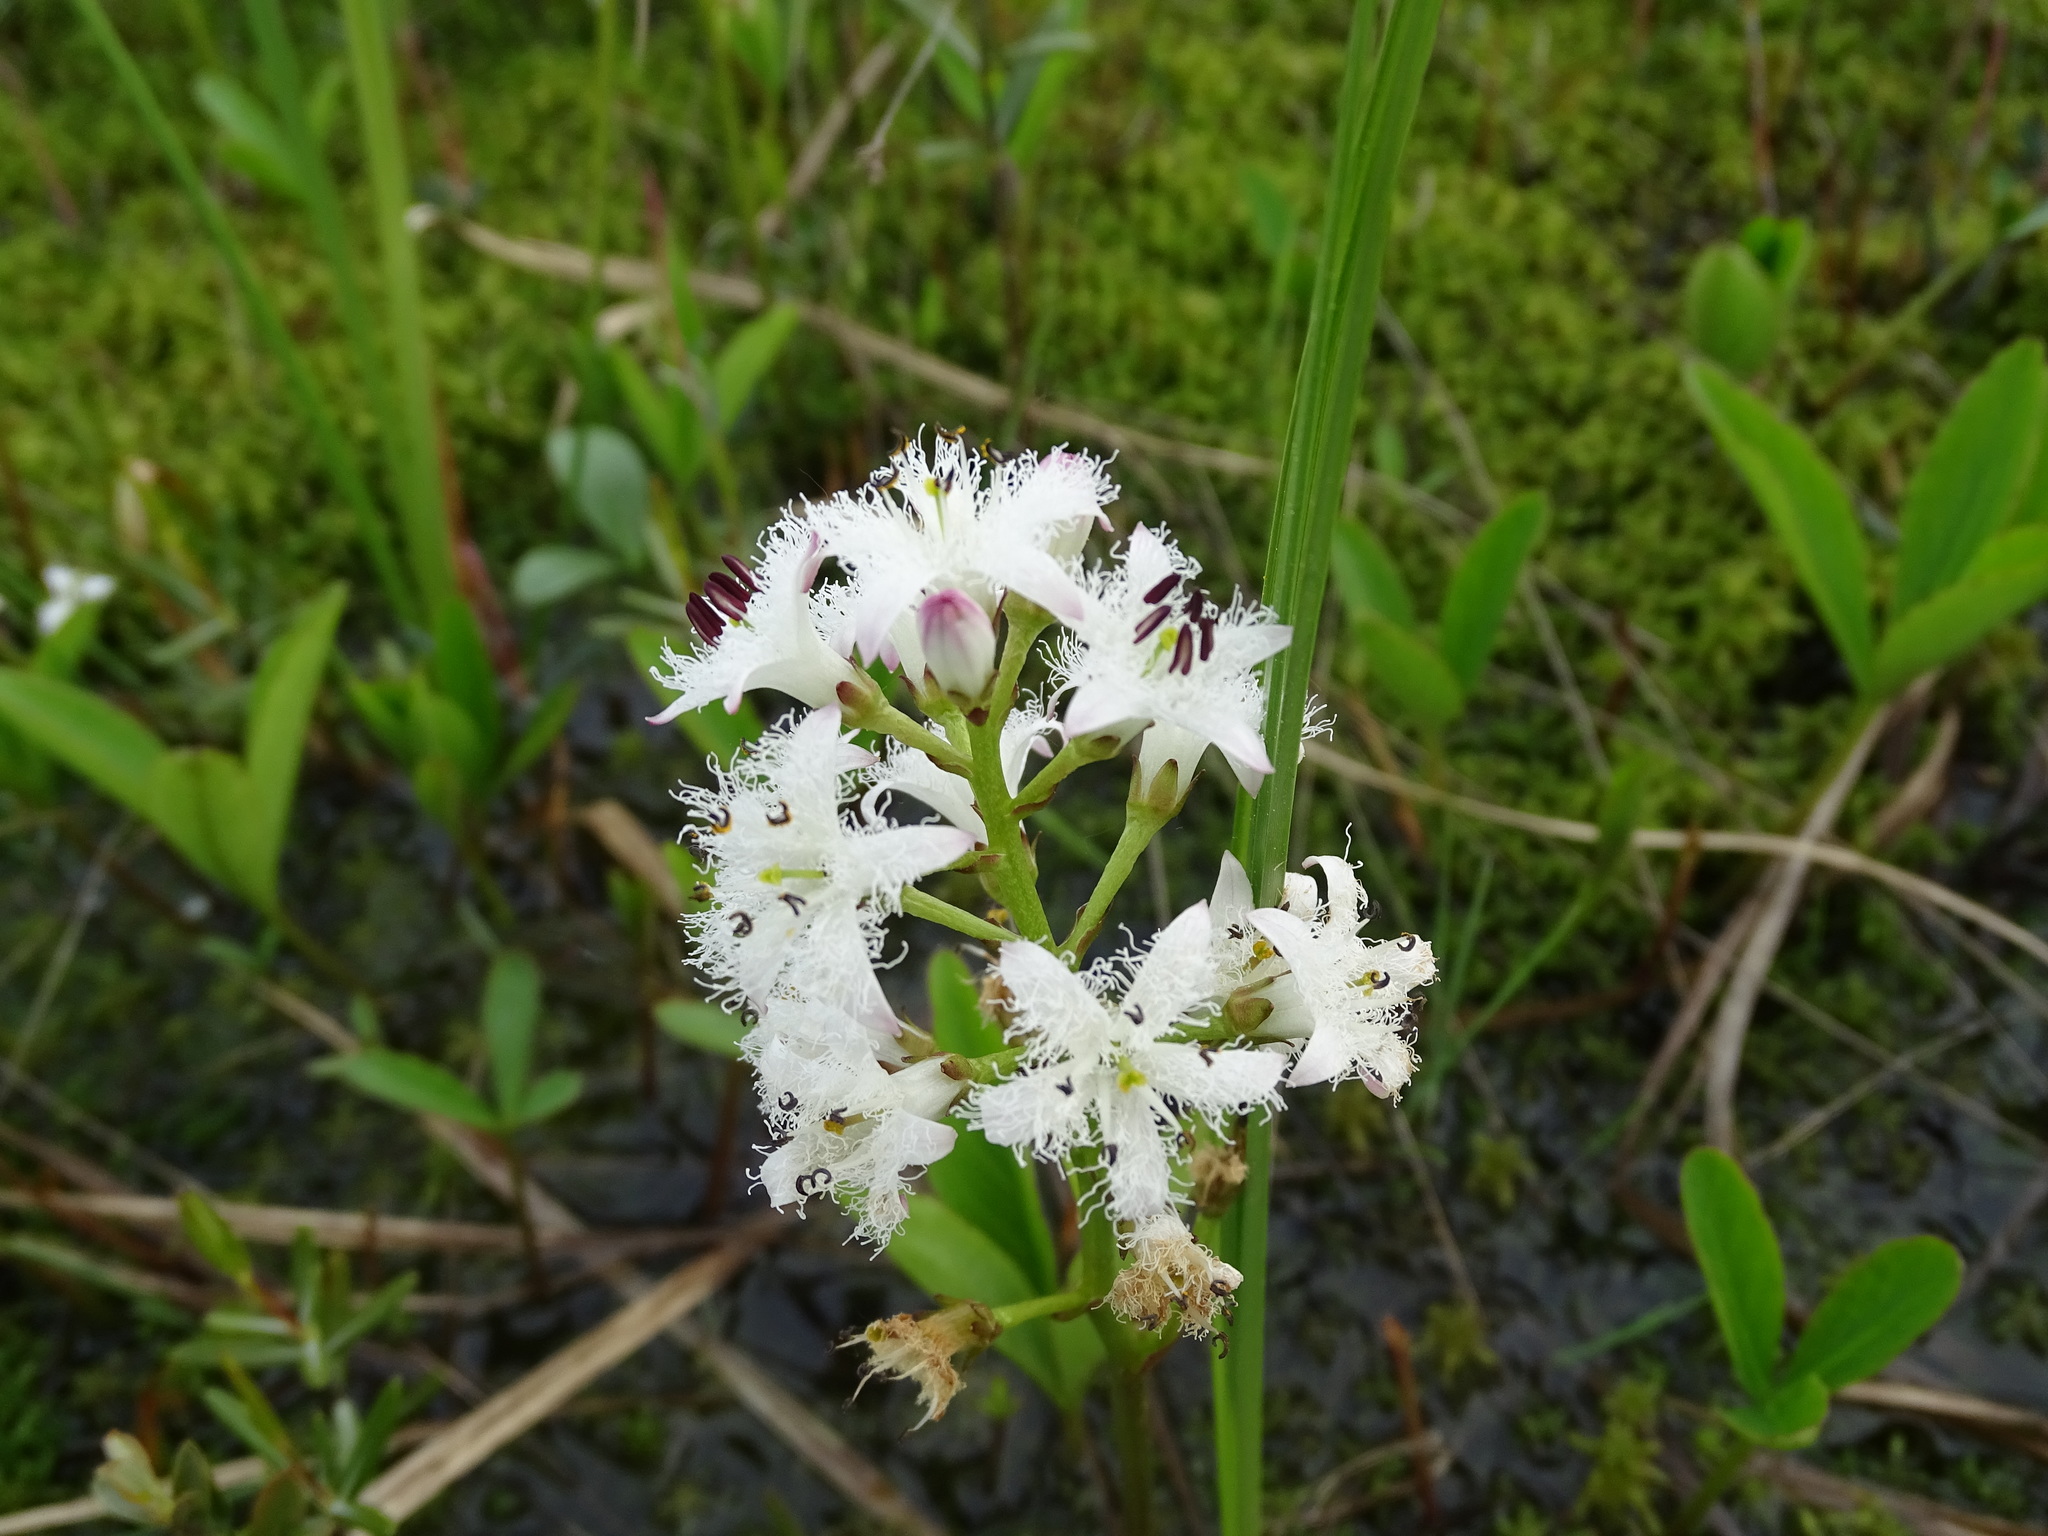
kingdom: Plantae
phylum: Tracheophyta
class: Magnoliopsida
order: Asterales
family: Menyanthaceae
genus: Menyanthes
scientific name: Menyanthes trifoliata
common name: Bogbean
